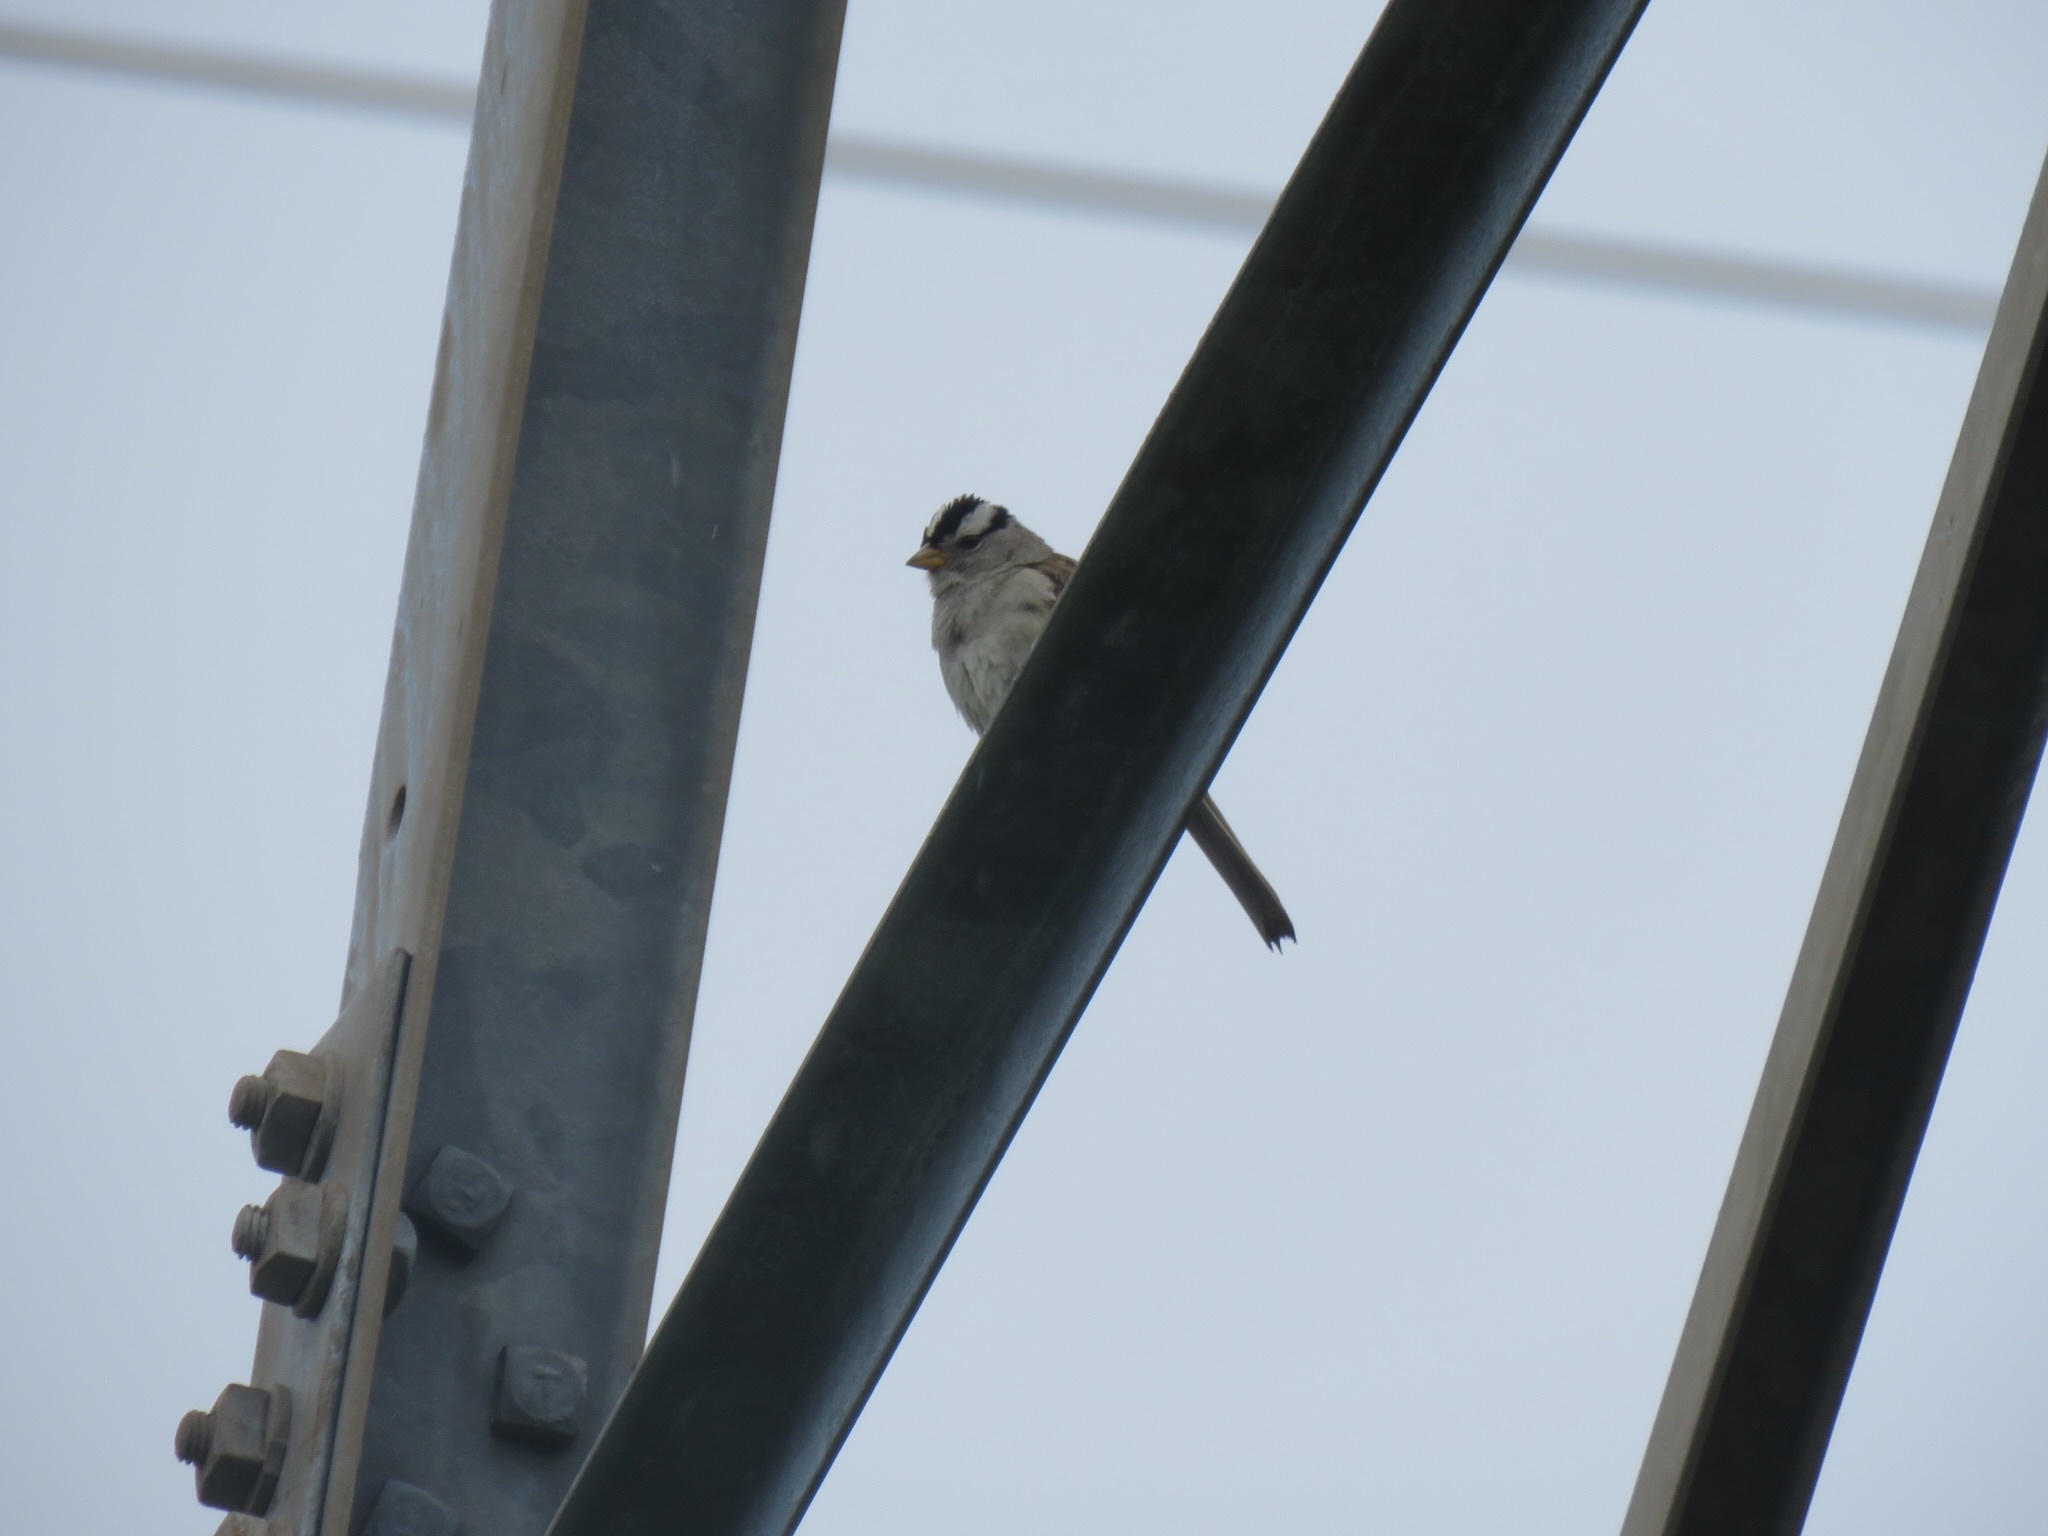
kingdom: Animalia
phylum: Chordata
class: Aves
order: Passeriformes
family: Passerellidae
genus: Zonotrichia
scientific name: Zonotrichia leucophrys
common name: White-crowned sparrow
